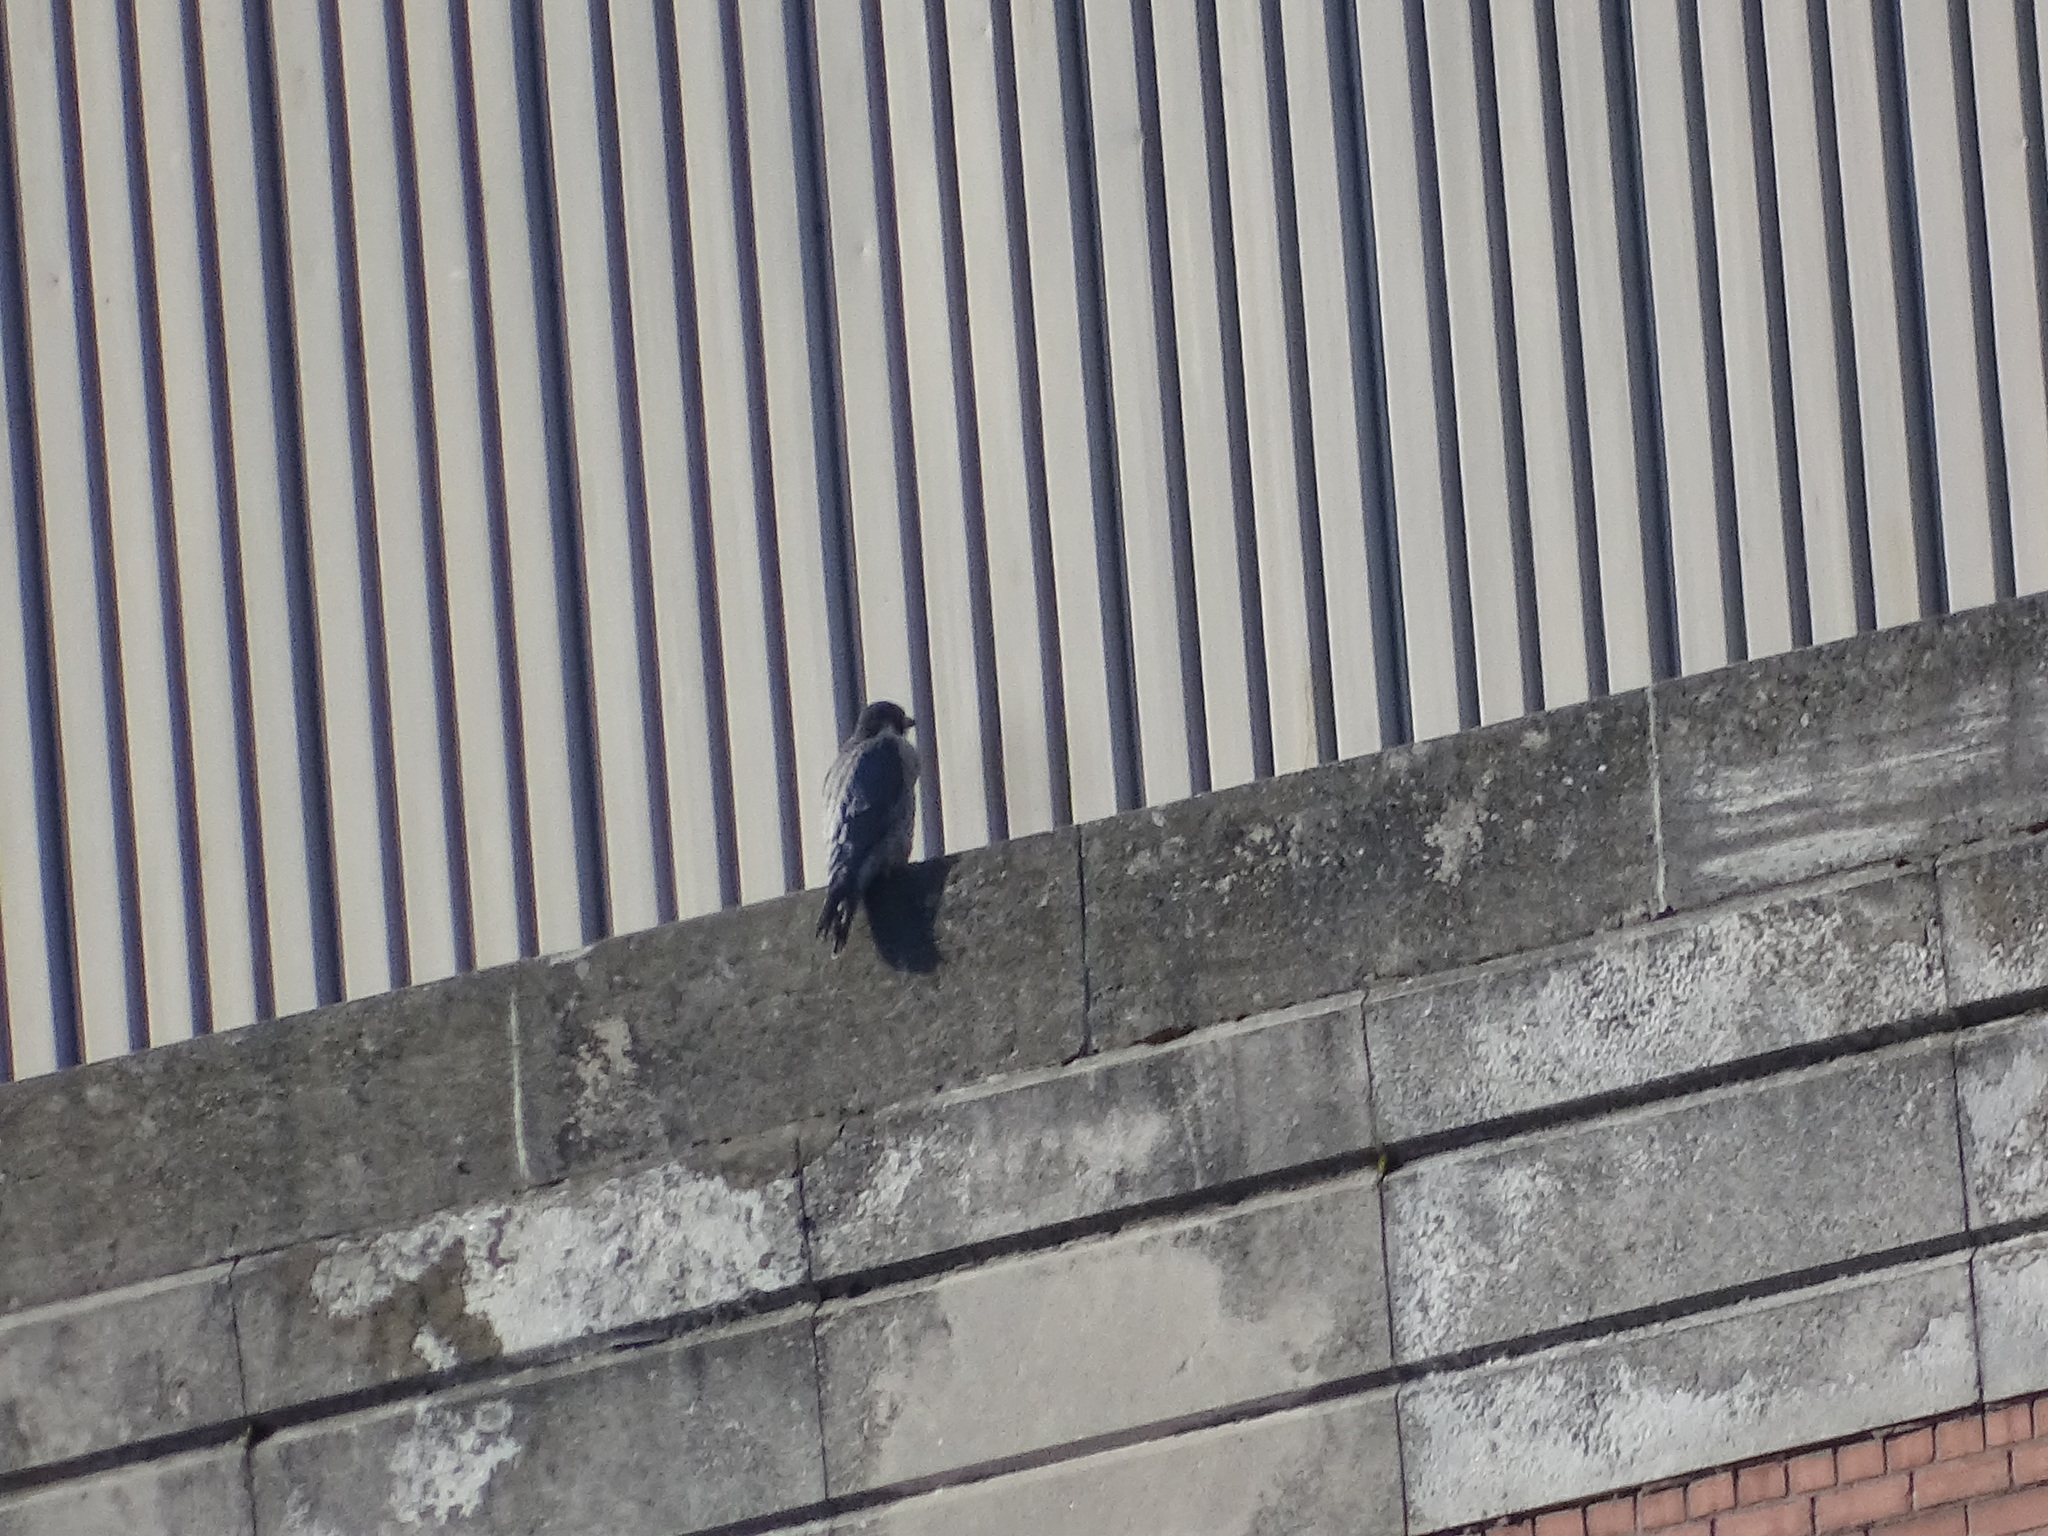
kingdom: Animalia
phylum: Chordata
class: Aves
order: Falconiformes
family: Falconidae
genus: Falco
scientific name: Falco peregrinus
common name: Peregrine falcon
